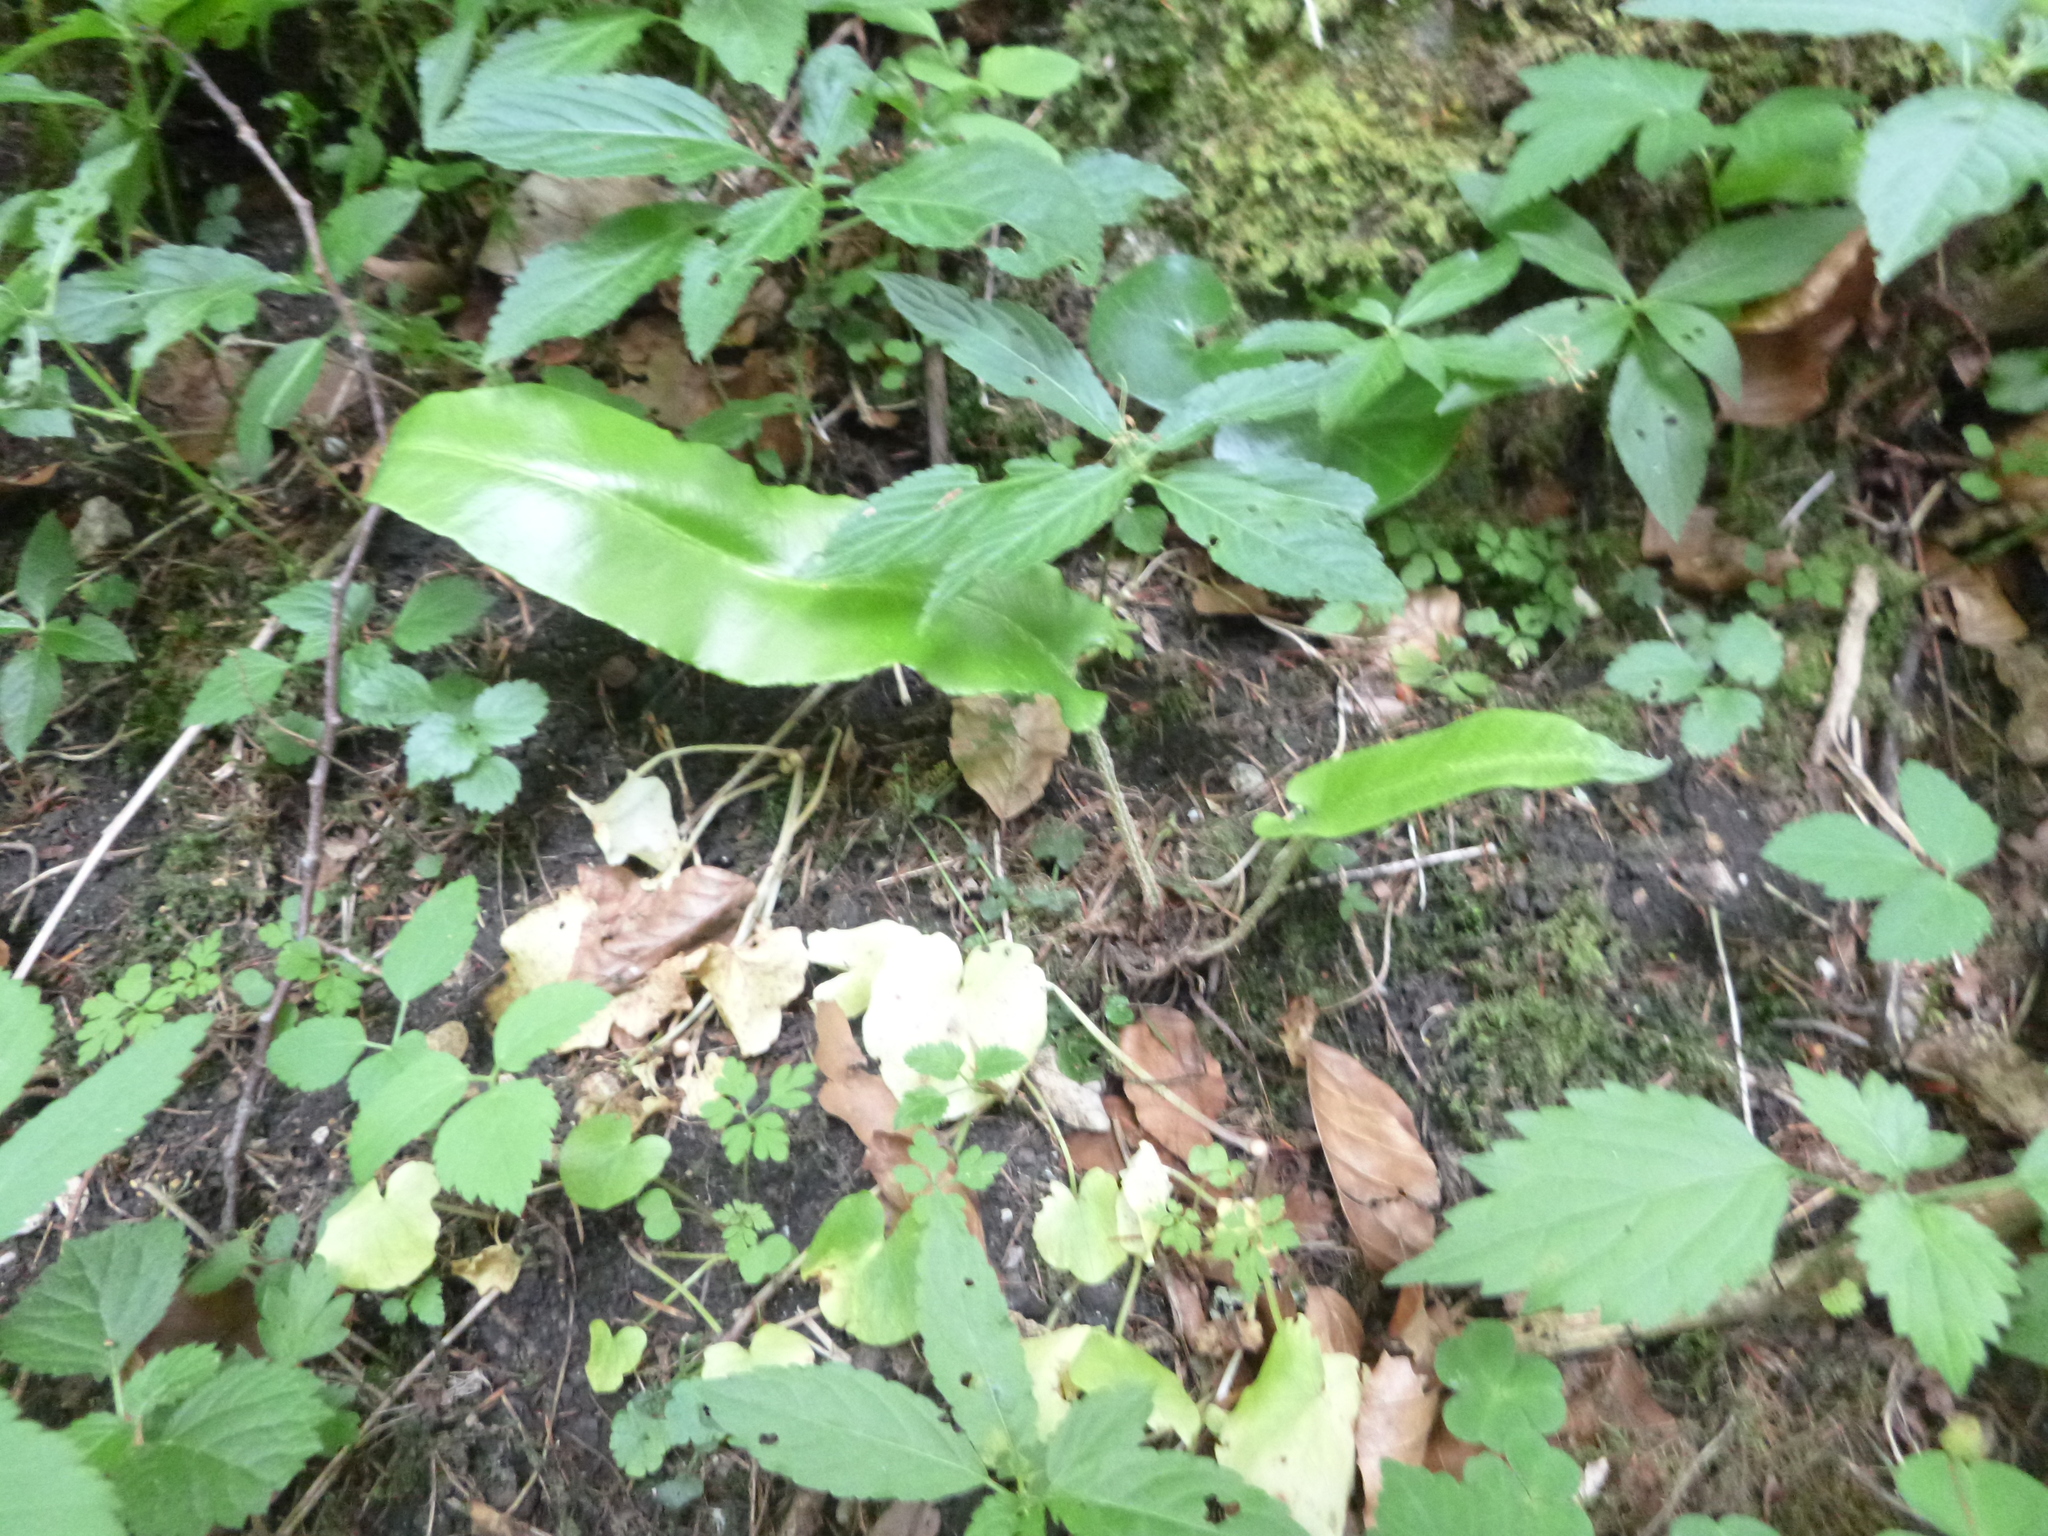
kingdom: Plantae
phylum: Tracheophyta
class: Polypodiopsida
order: Polypodiales
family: Aspleniaceae
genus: Asplenium
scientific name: Asplenium scolopendrium
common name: Hart's-tongue fern
